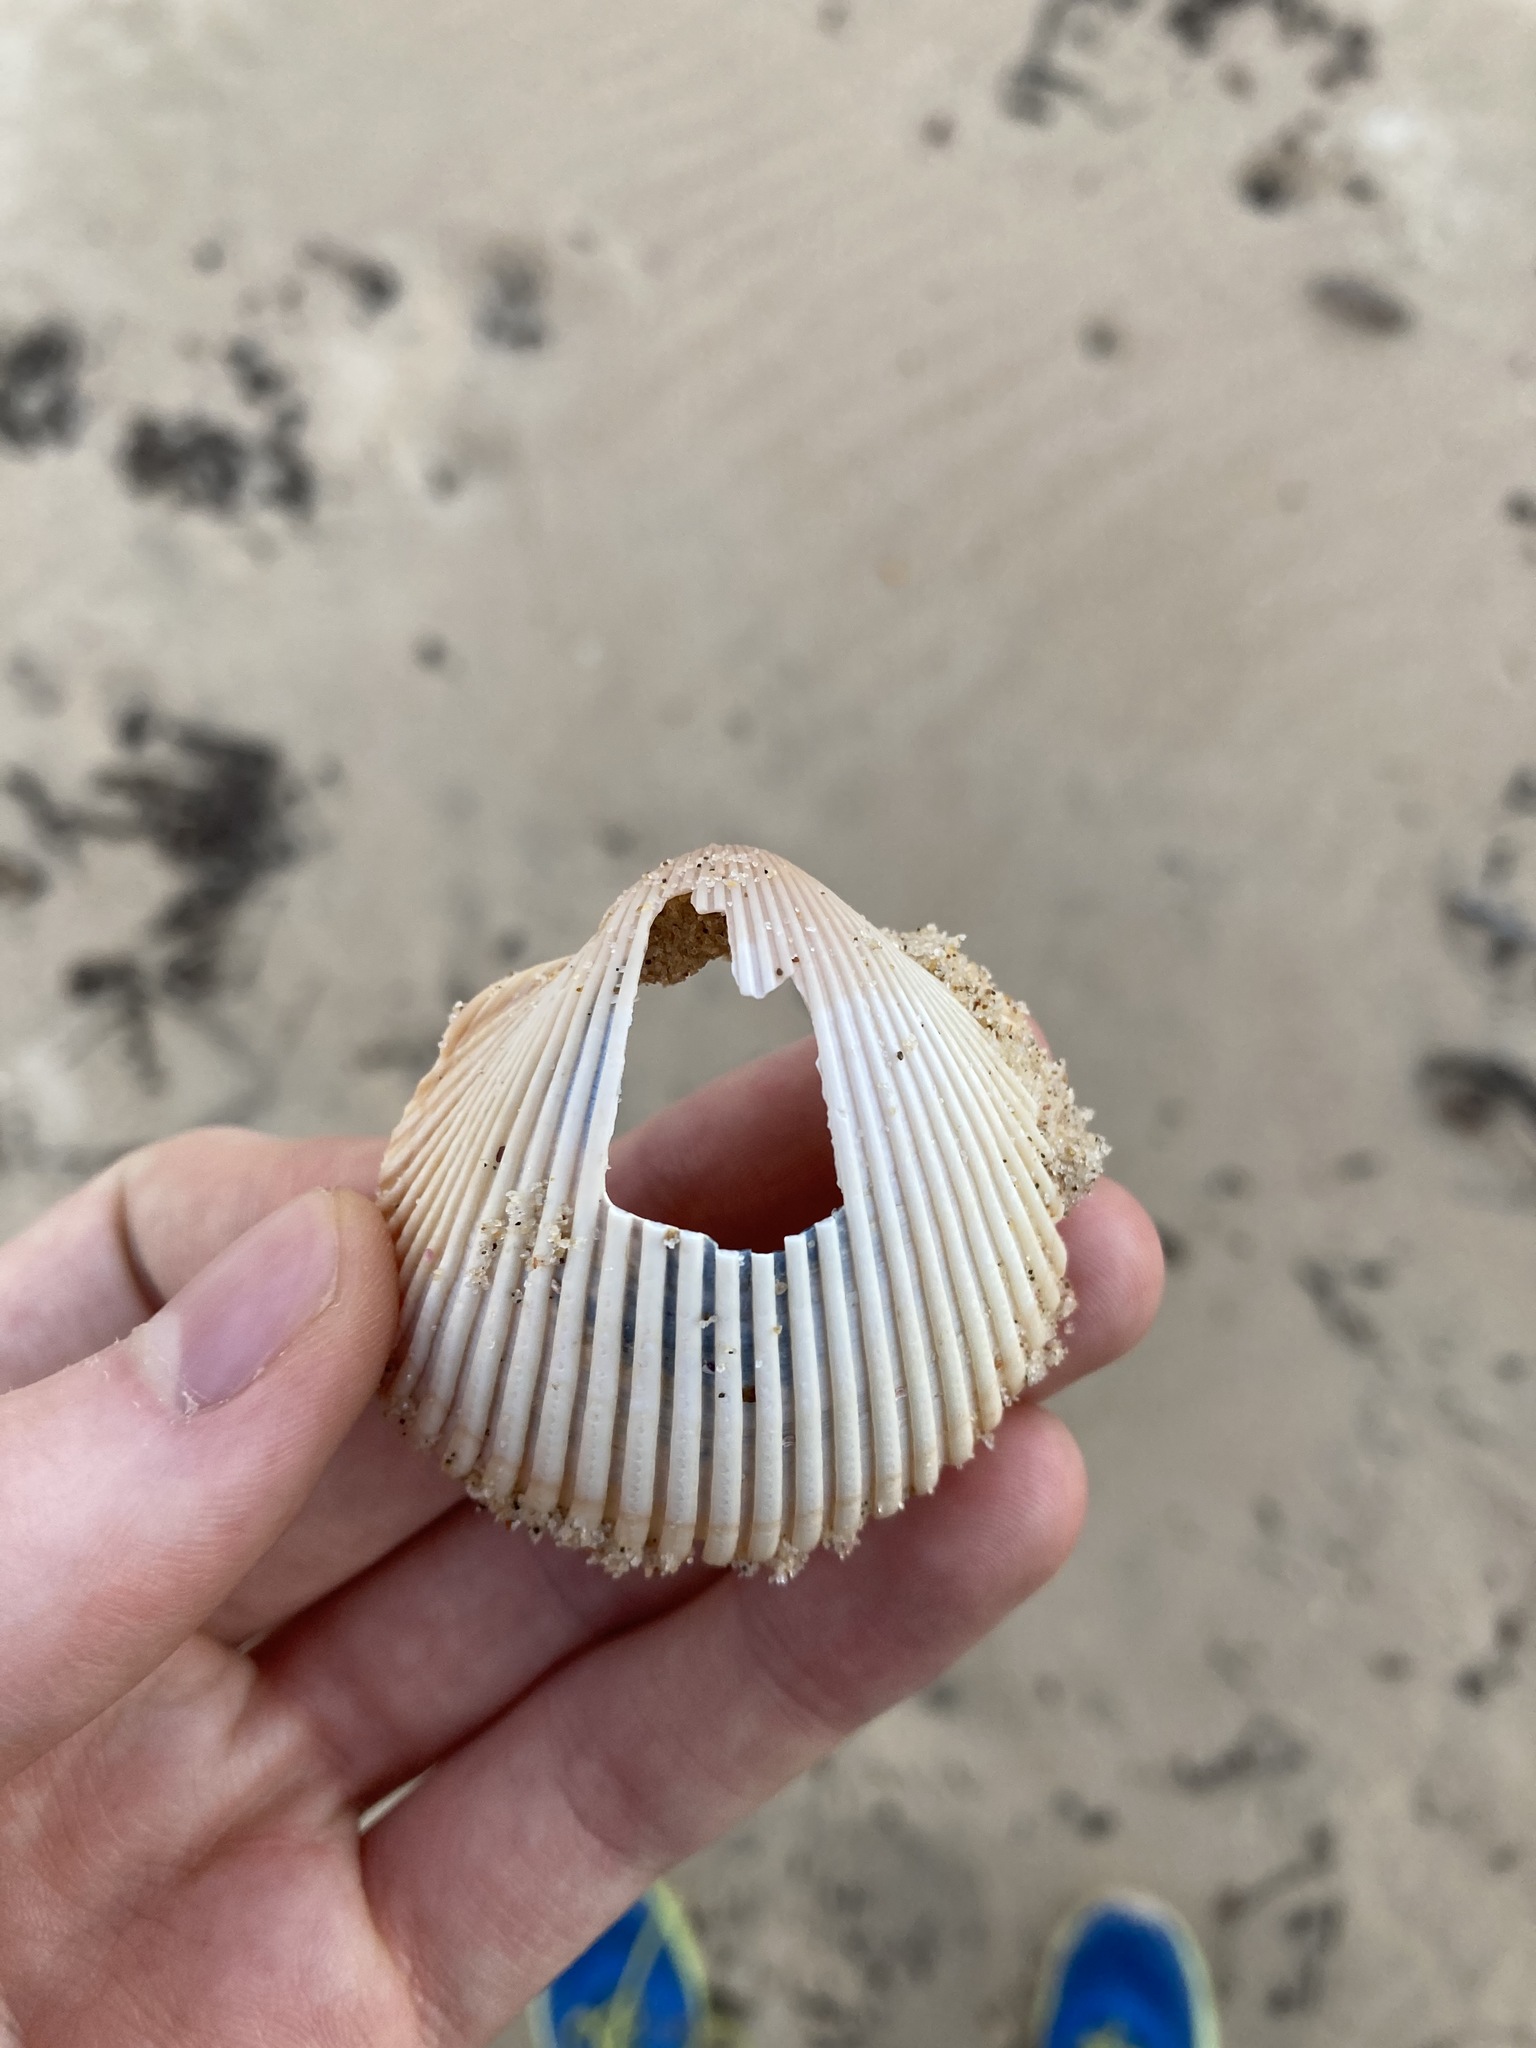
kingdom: Animalia
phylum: Mollusca
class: Bivalvia
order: Cardiida
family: Cardiidae
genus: Vepricardium
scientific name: Vepricardium multispinosum
